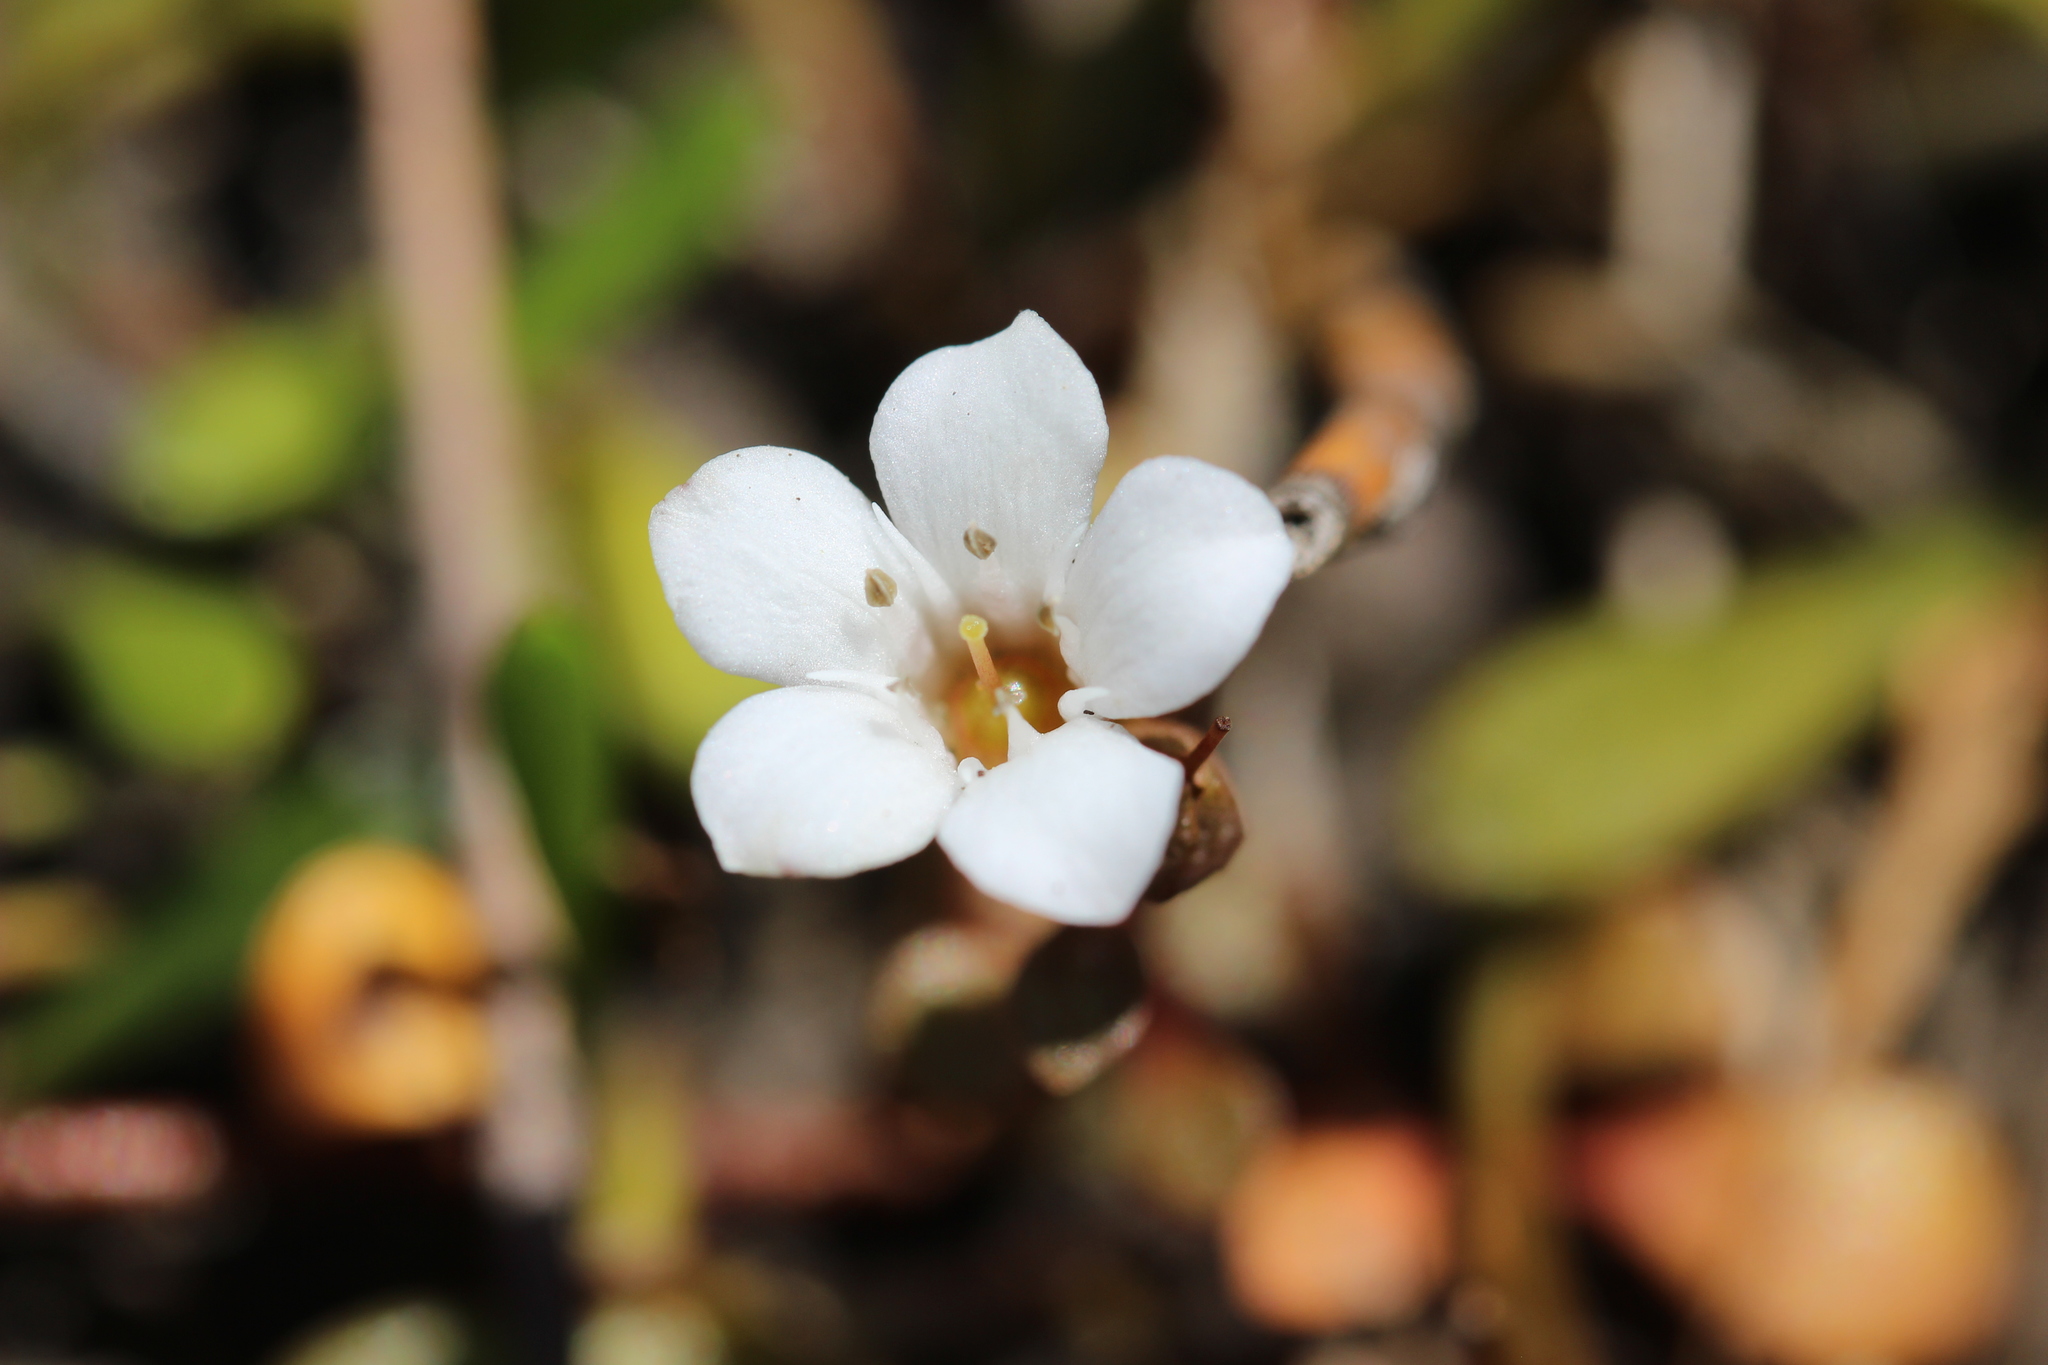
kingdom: Plantae
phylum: Tracheophyta
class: Magnoliopsida
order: Ericales
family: Primulaceae
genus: Samolus
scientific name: Samolus repens
